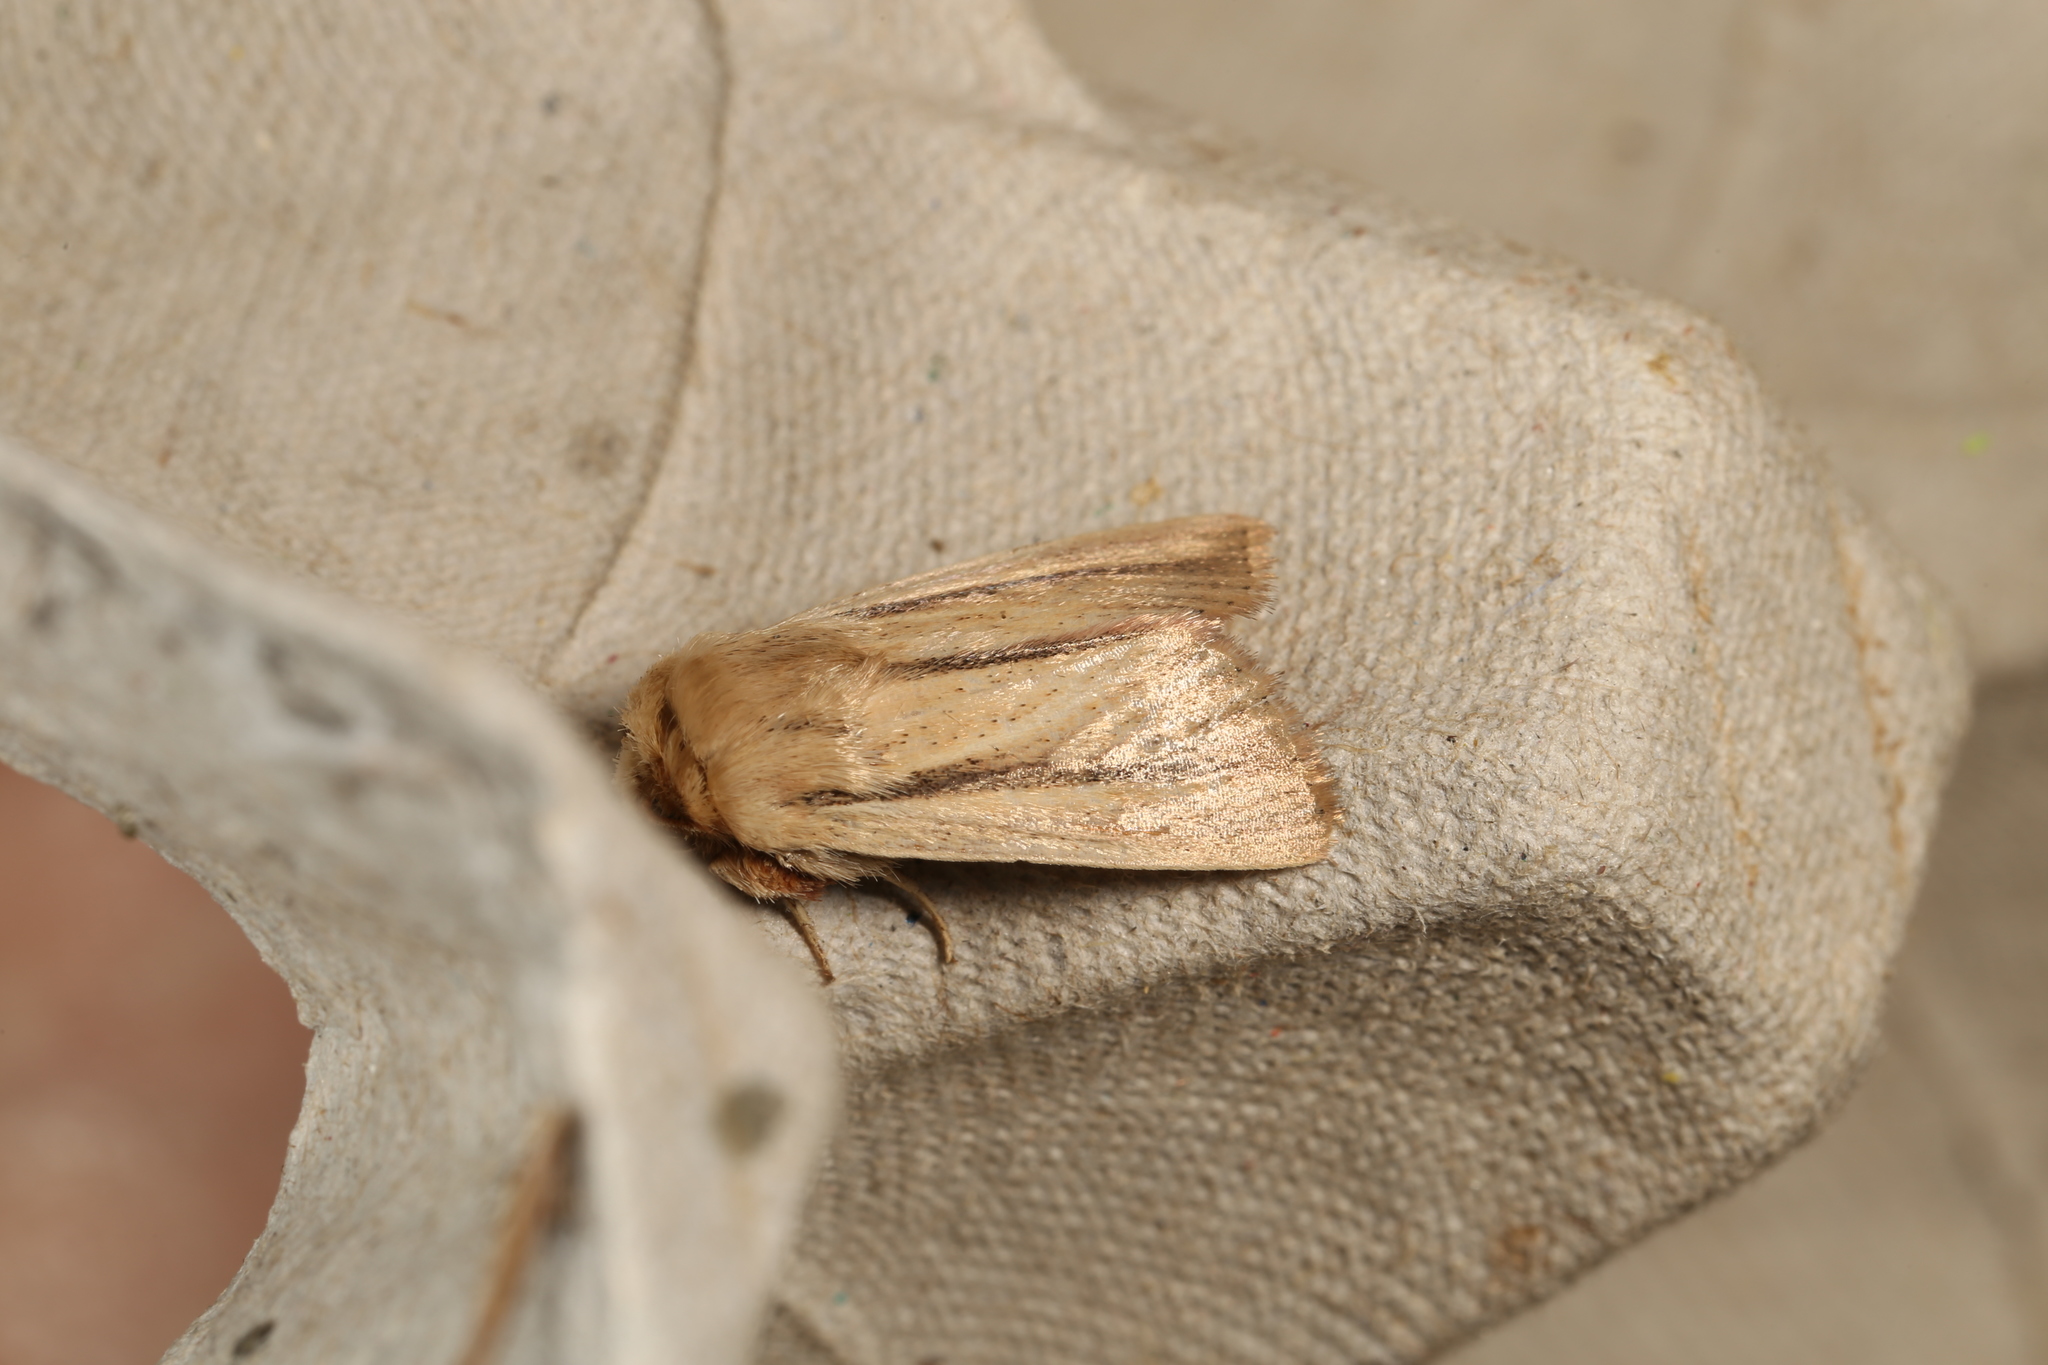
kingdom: Animalia
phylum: Arthropoda
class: Insecta
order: Lepidoptera
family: Noctuidae
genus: Leucania
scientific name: Leucania diatrecta
